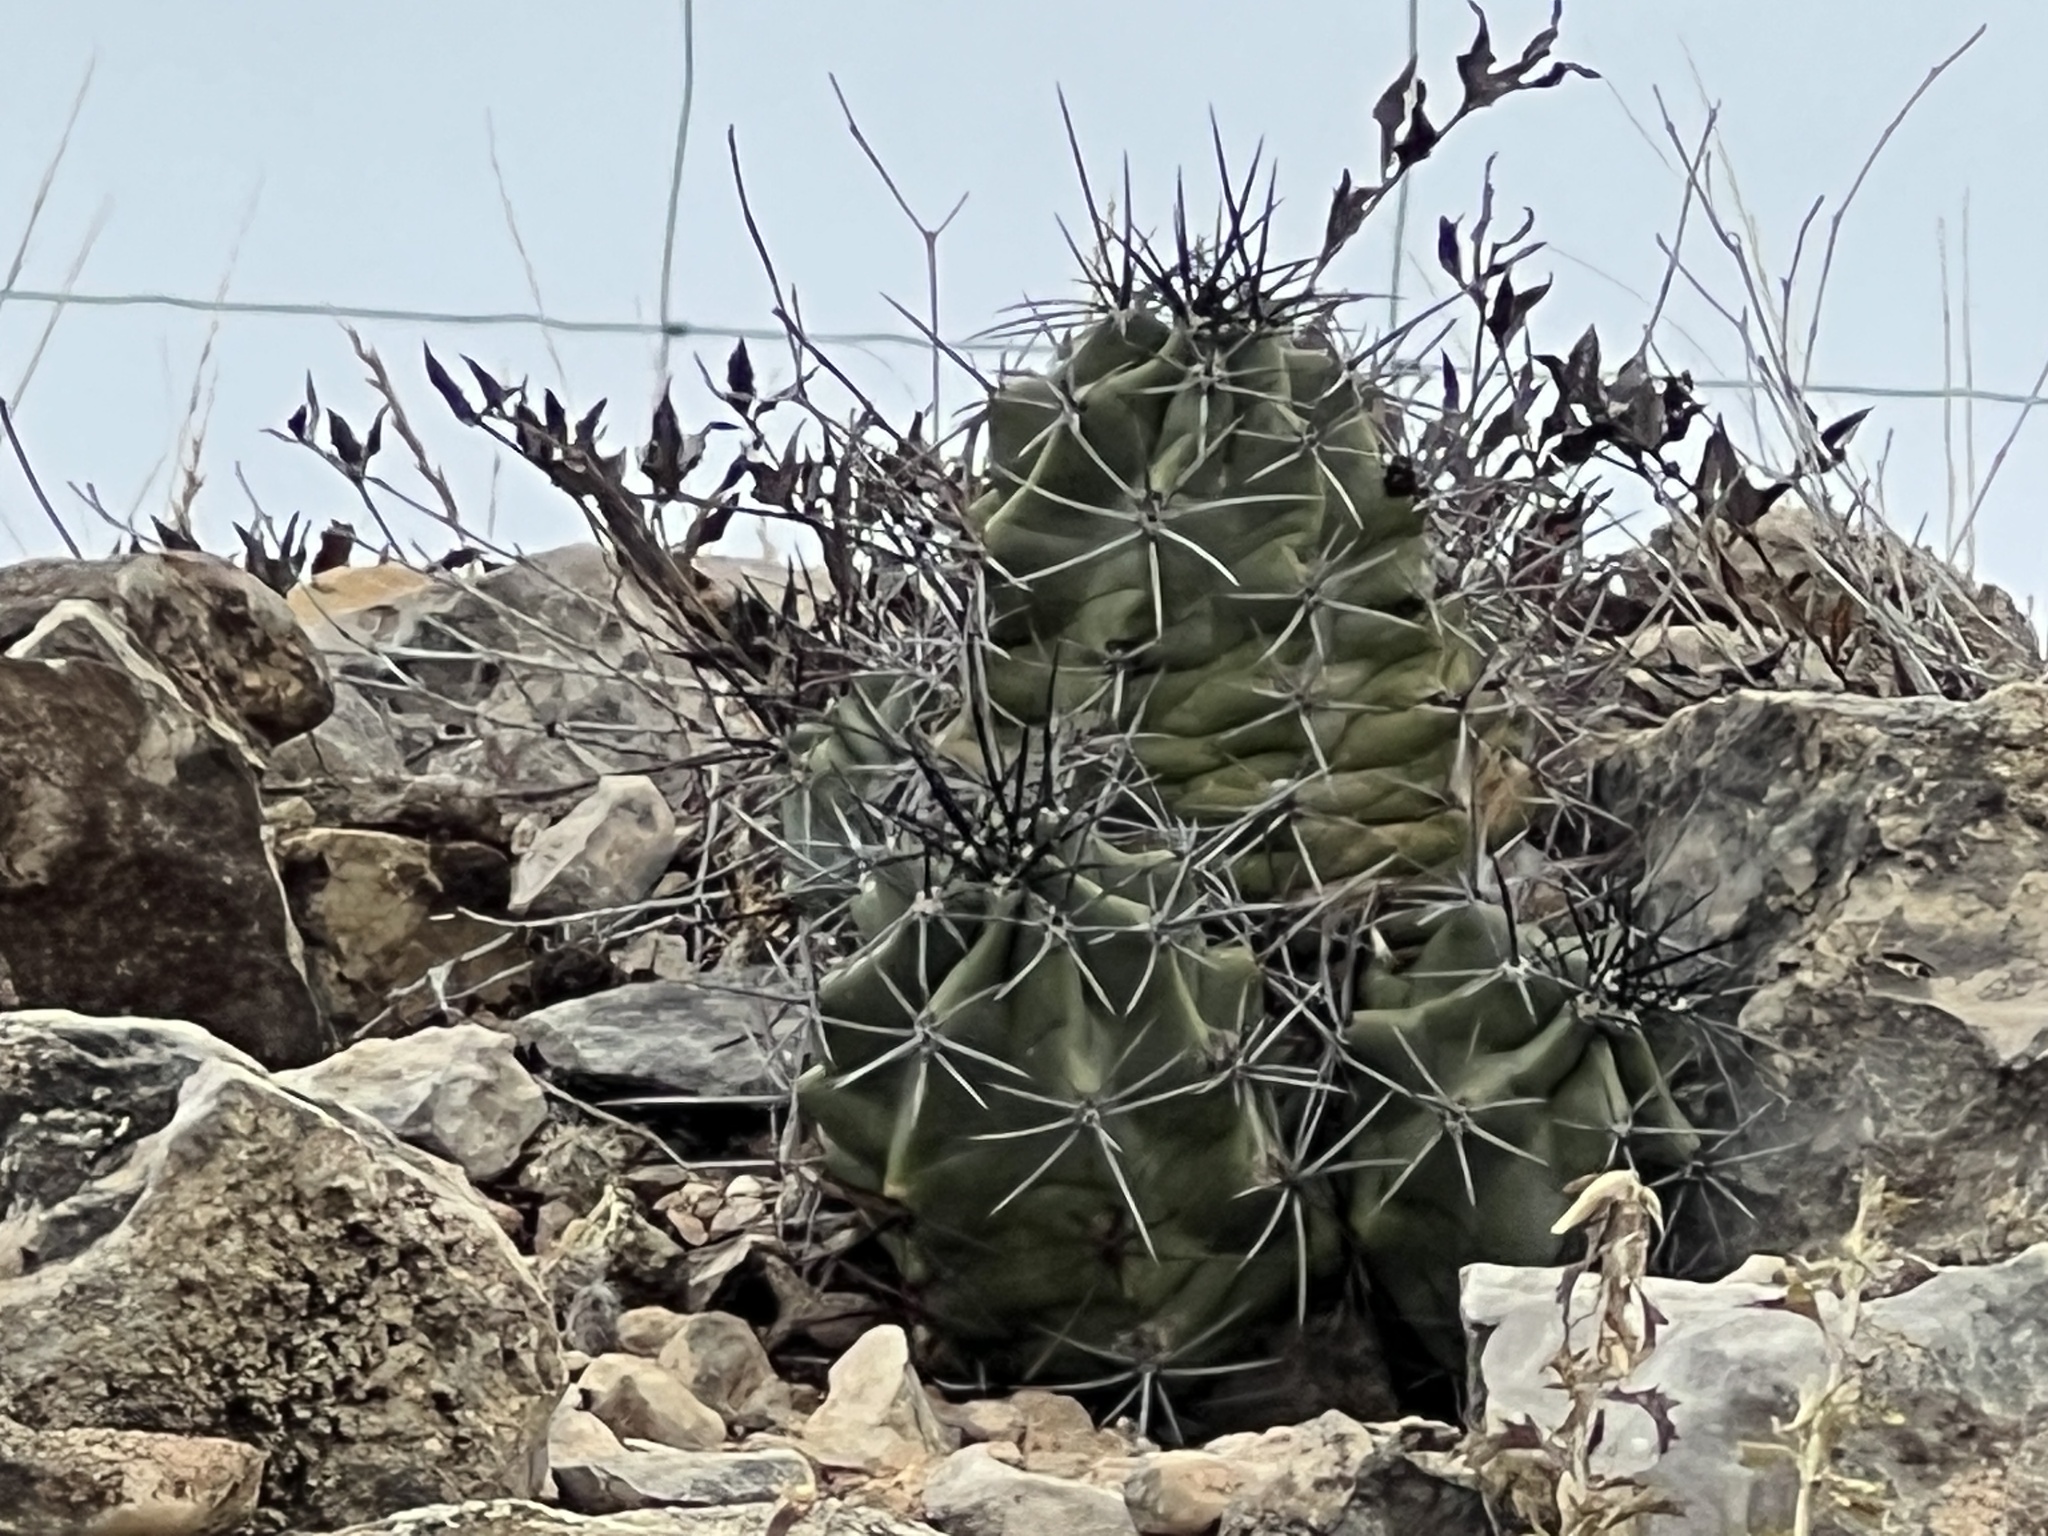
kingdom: Plantae
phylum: Tracheophyta
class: Magnoliopsida
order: Caryophyllales
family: Cactaceae
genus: Echinocereus
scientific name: Echinocereus coccineus
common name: Scarlet hedgehog cactus
